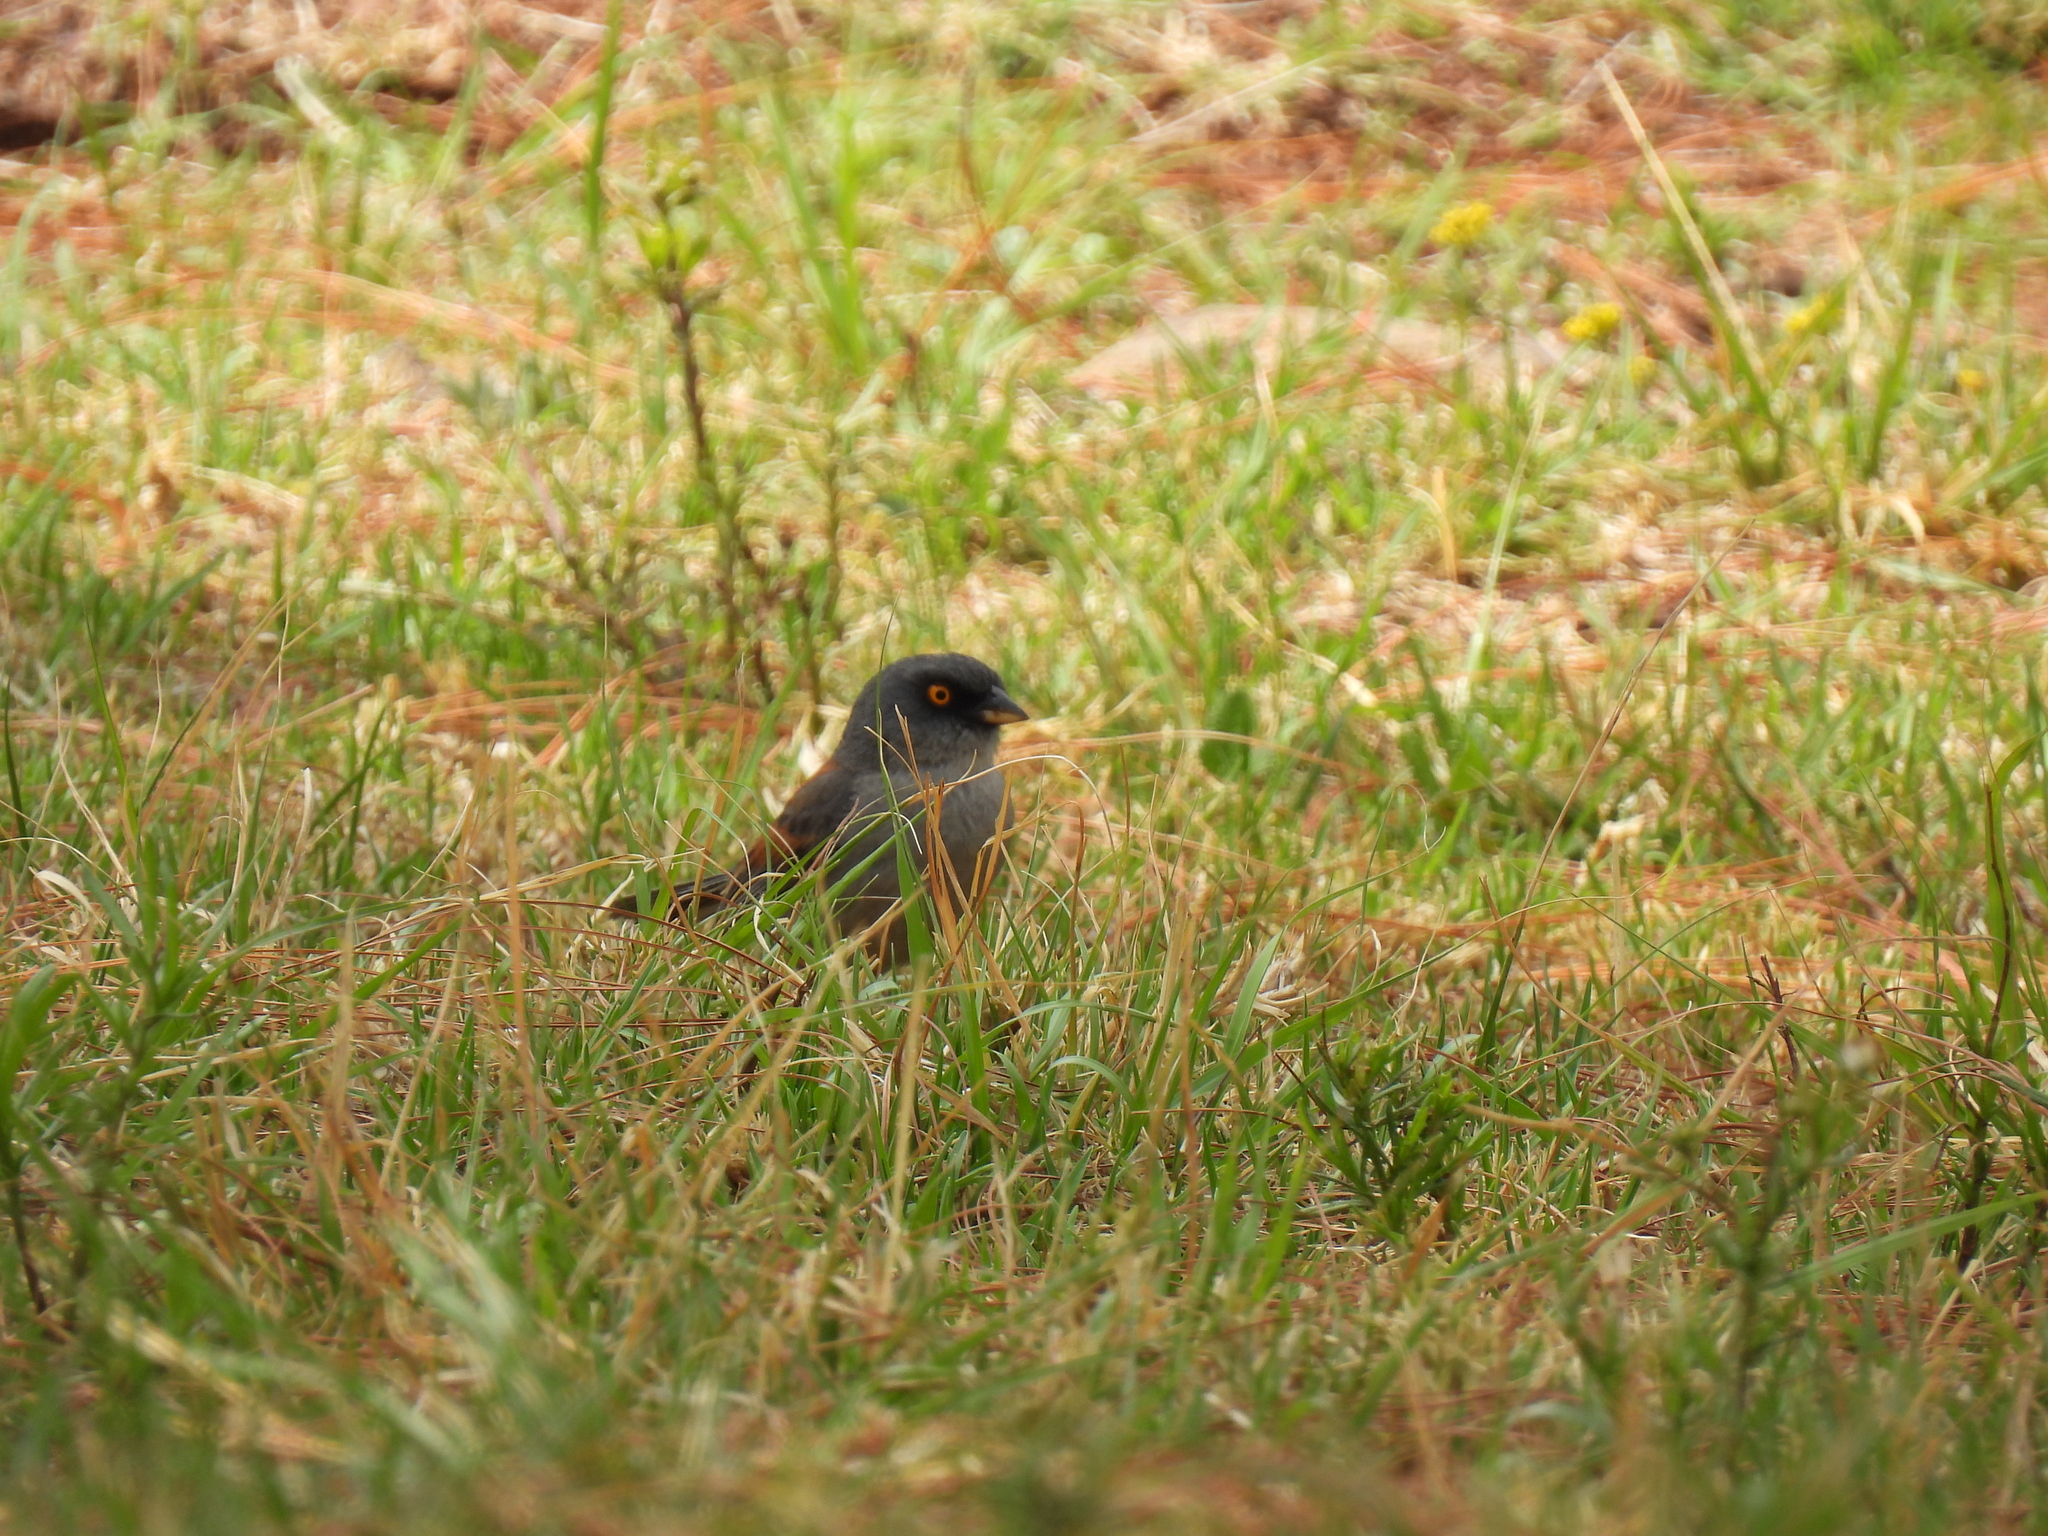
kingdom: Animalia
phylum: Chordata
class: Aves
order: Passeriformes
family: Passerellidae
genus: Junco
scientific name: Junco phaeonotus
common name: Yellow-eyed junco
